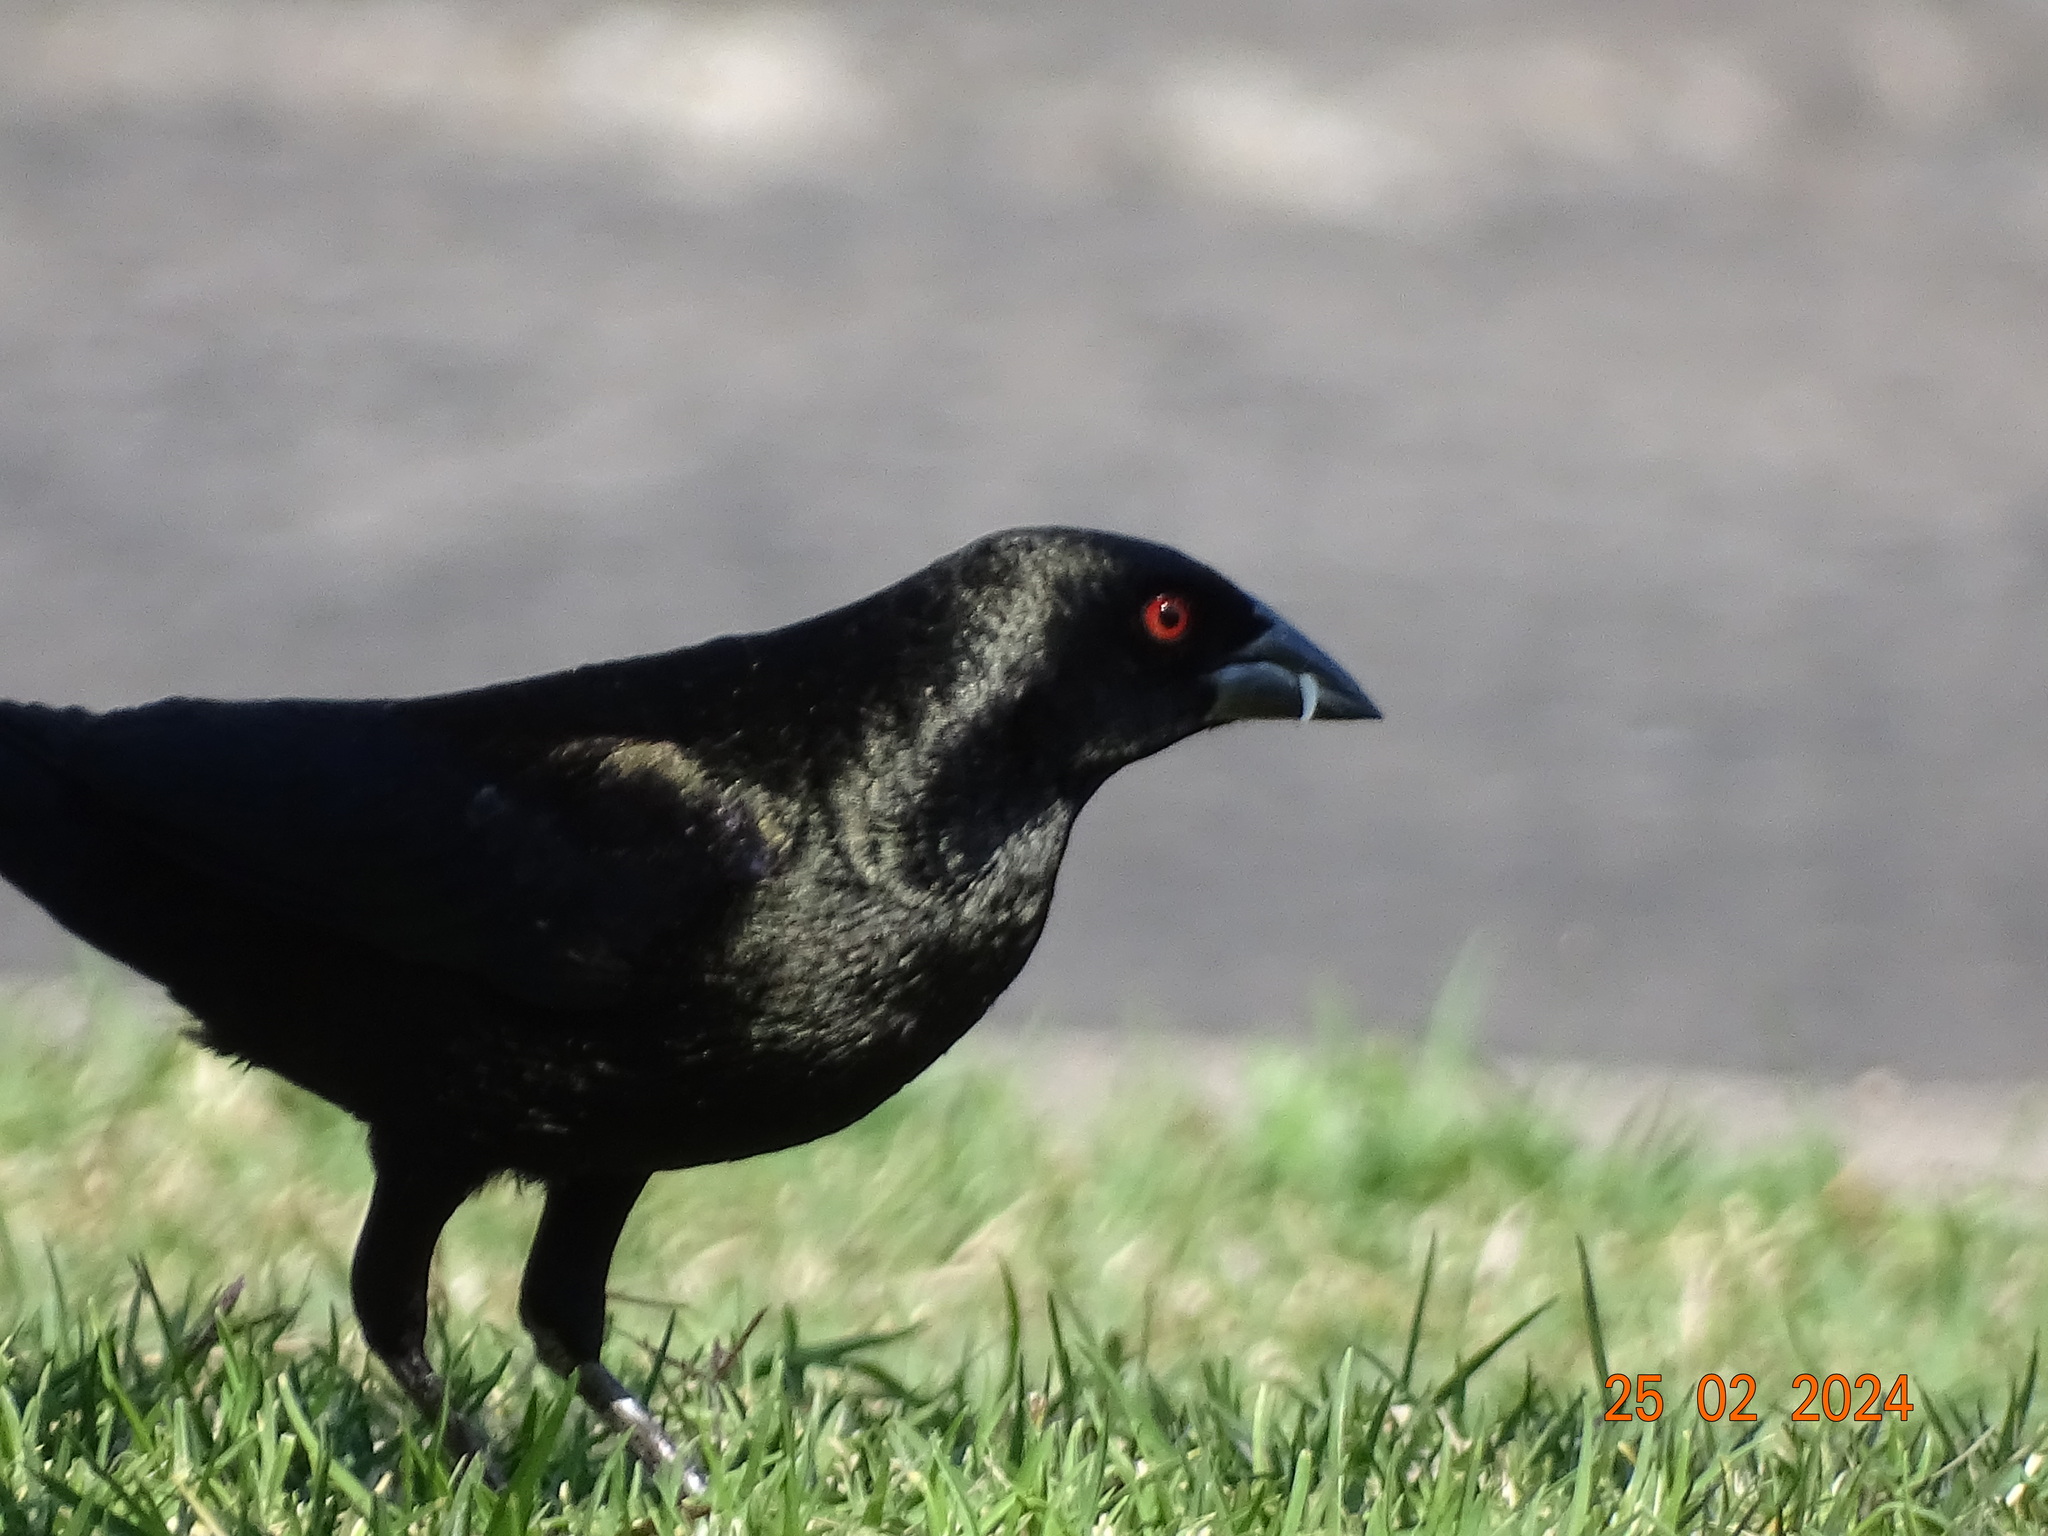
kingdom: Animalia
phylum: Chordata
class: Aves
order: Passeriformes
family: Icteridae
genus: Molothrus
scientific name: Molothrus aeneus
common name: Bronzed cowbird
